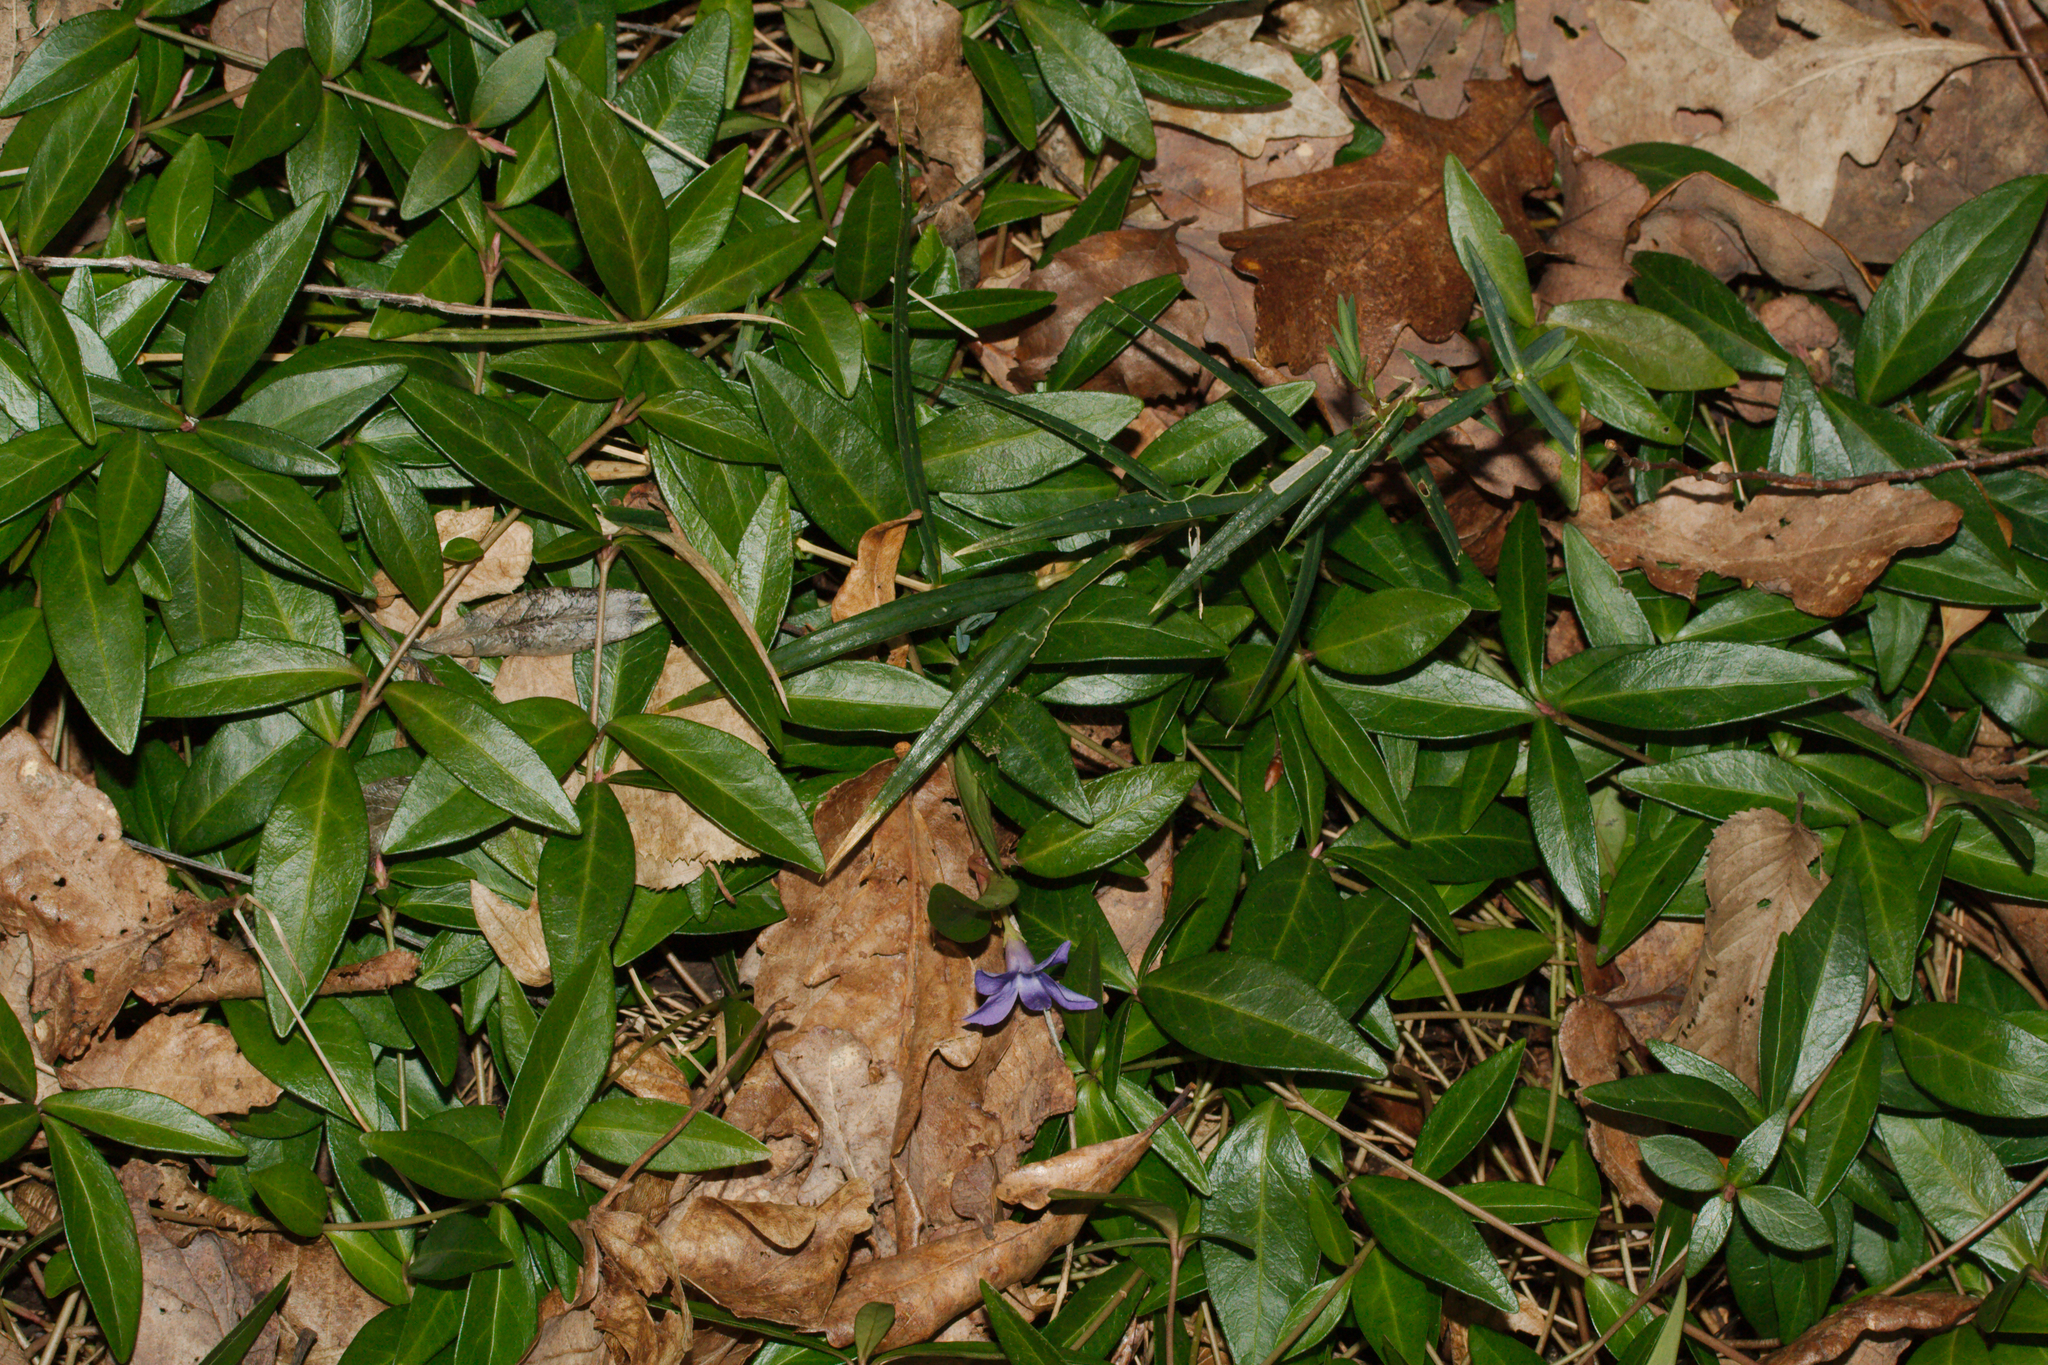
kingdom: Plantae
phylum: Tracheophyta
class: Magnoliopsida
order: Gentianales
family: Apocynaceae
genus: Vinca
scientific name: Vinca minor
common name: Lesser periwinkle
